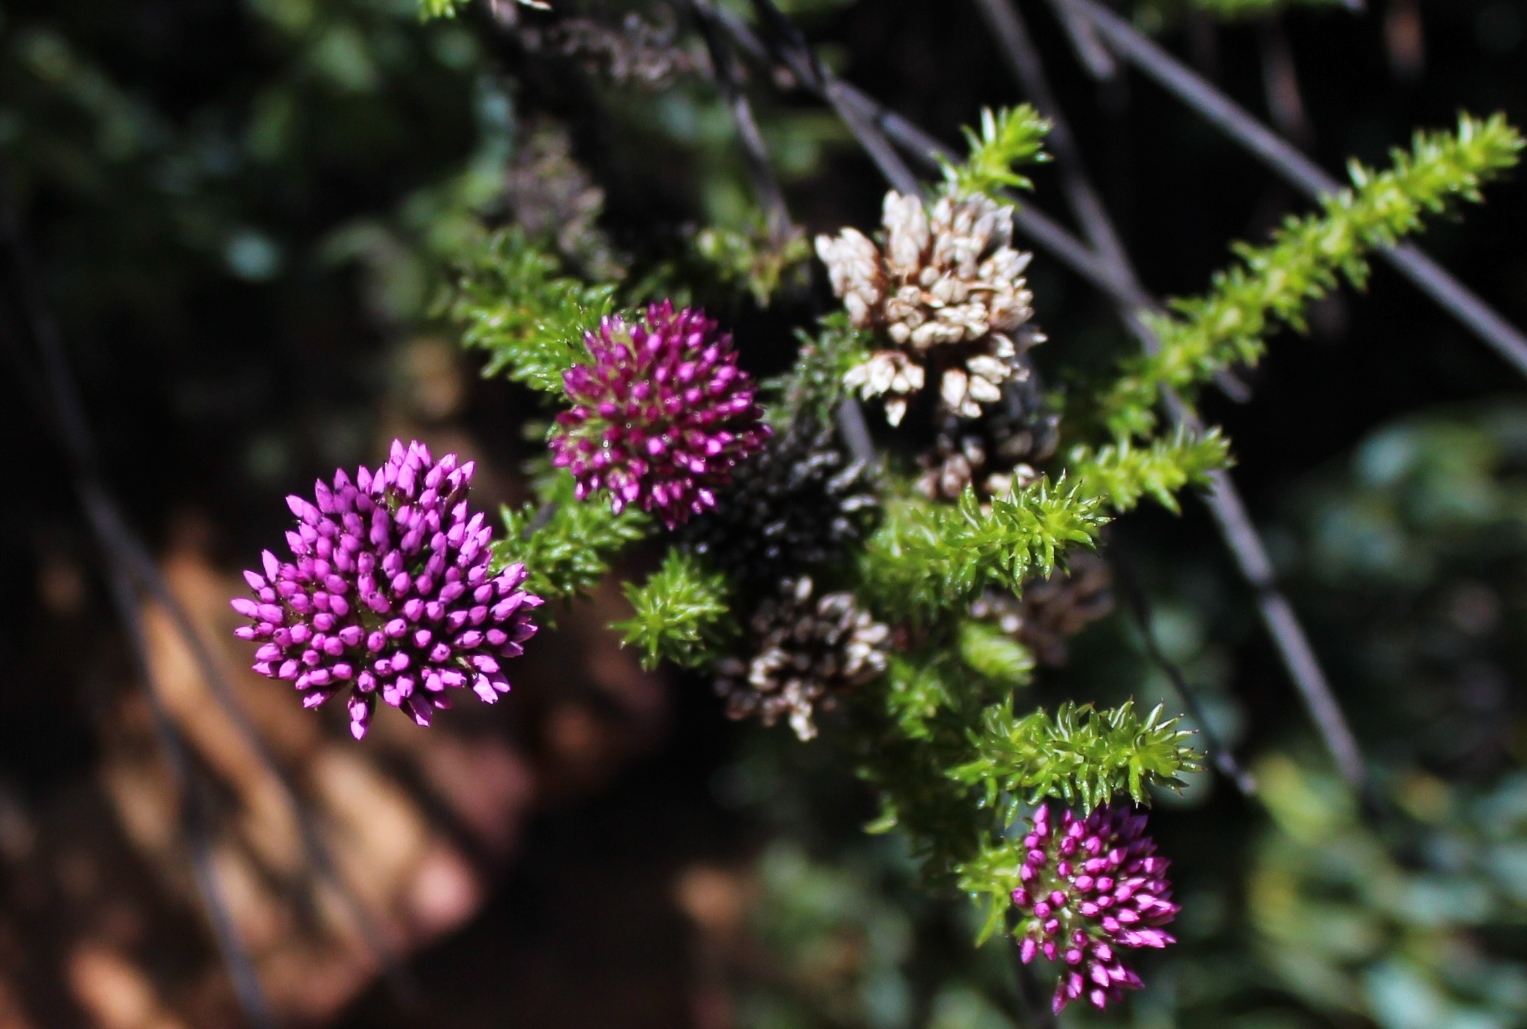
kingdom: Plantae
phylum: Tracheophyta
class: Magnoliopsida
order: Asterales
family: Asteraceae
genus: Metalasia
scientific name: Metalasia phillipsii
